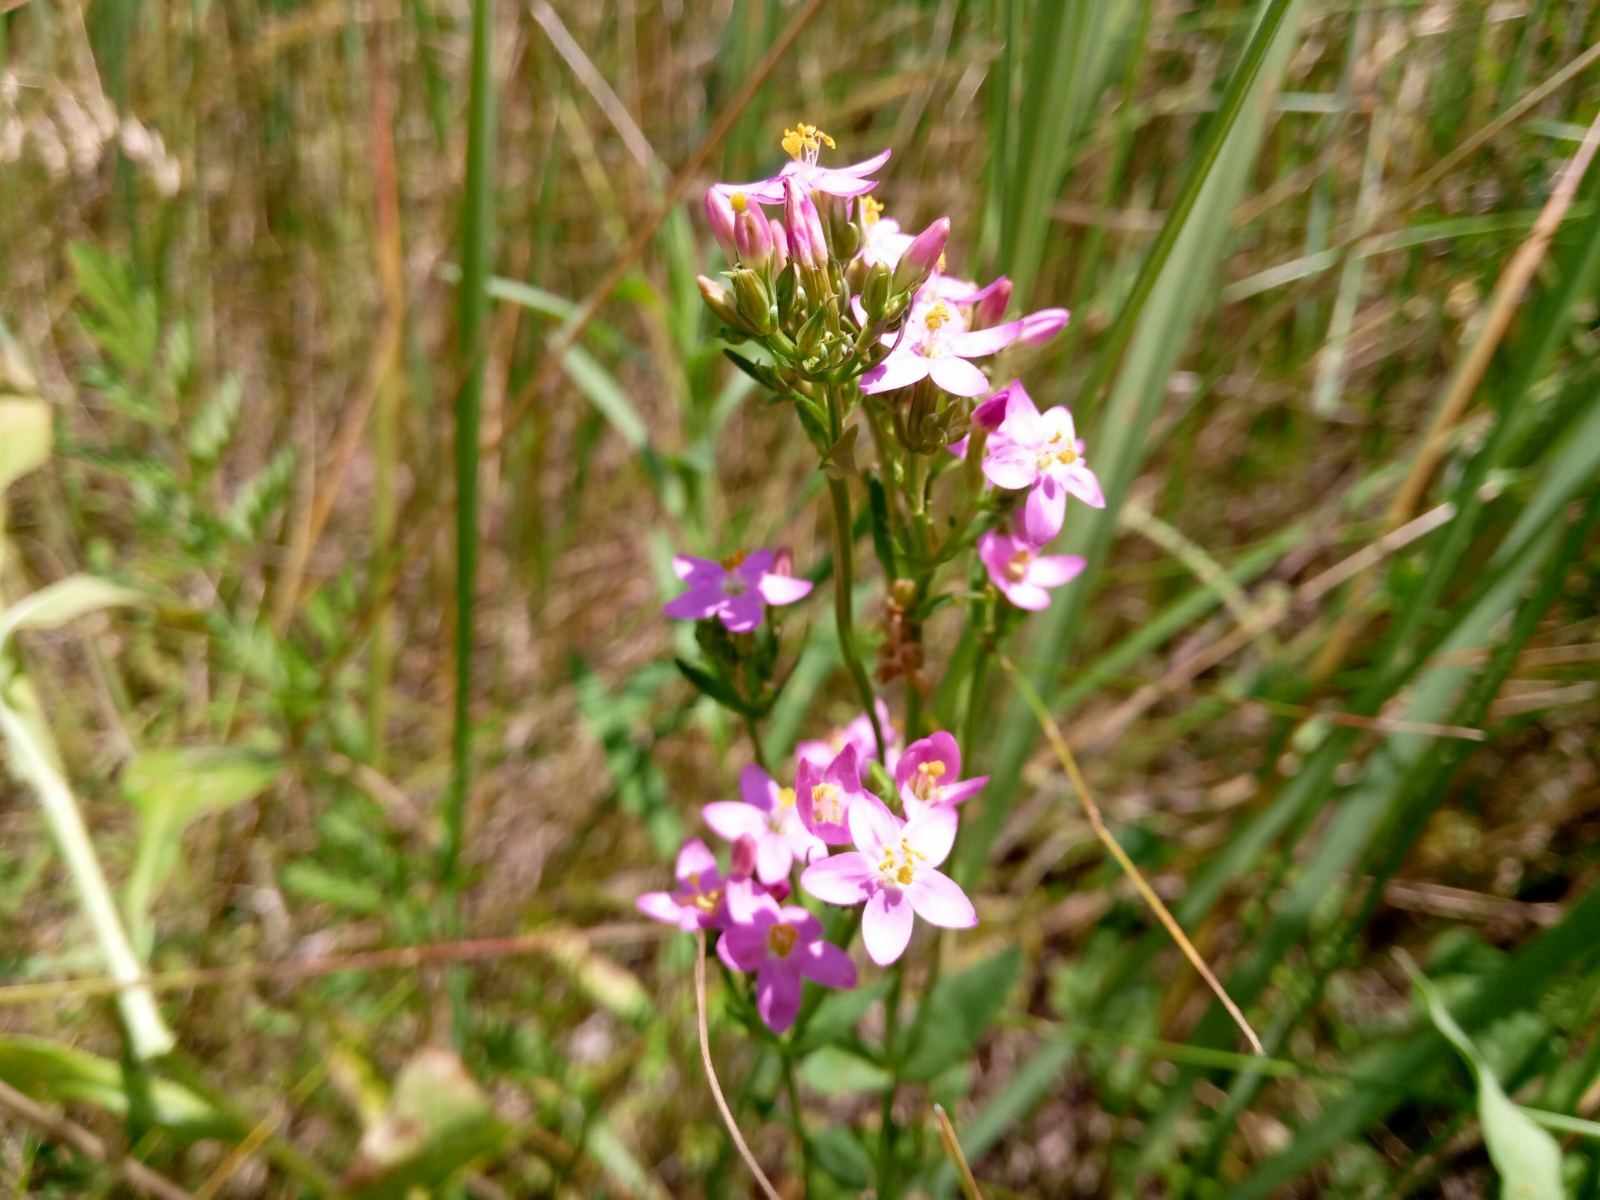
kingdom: Plantae
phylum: Tracheophyta
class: Magnoliopsida
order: Gentianales
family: Gentianaceae
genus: Centaurium
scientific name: Centaurium erythraea
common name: Common centaury
